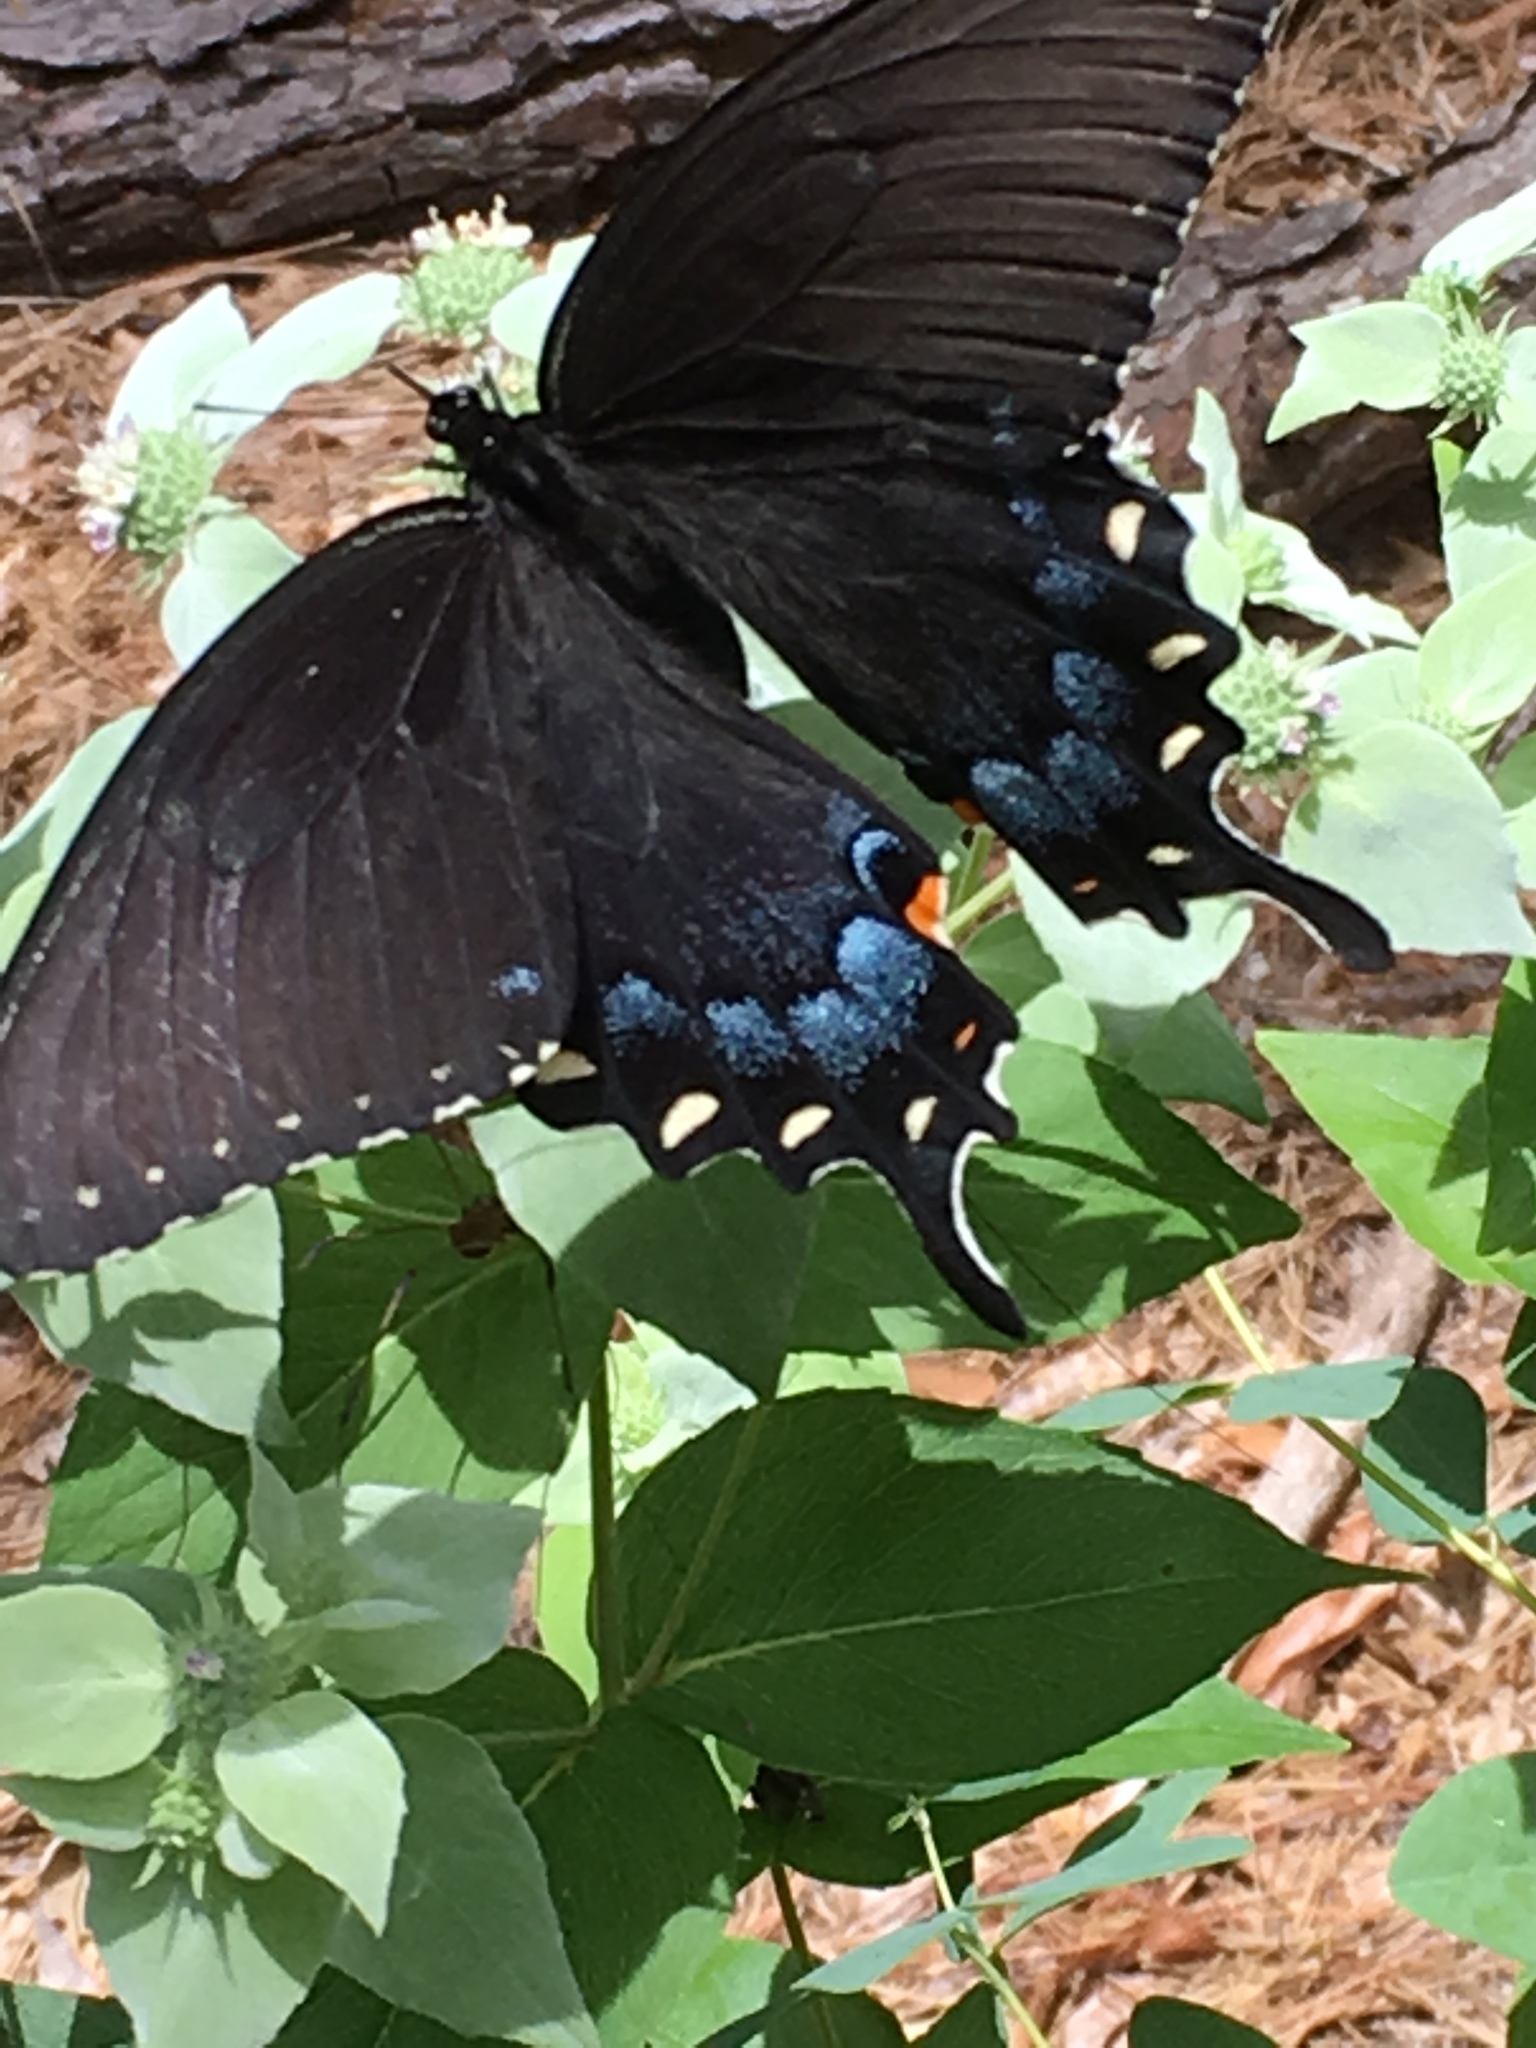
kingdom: Animalia
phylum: Arthropoda
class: Insecta
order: Lepidoptera
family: Papilionidae
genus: Papilio
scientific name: Papilio glaucus
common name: Tiger swallowtail
